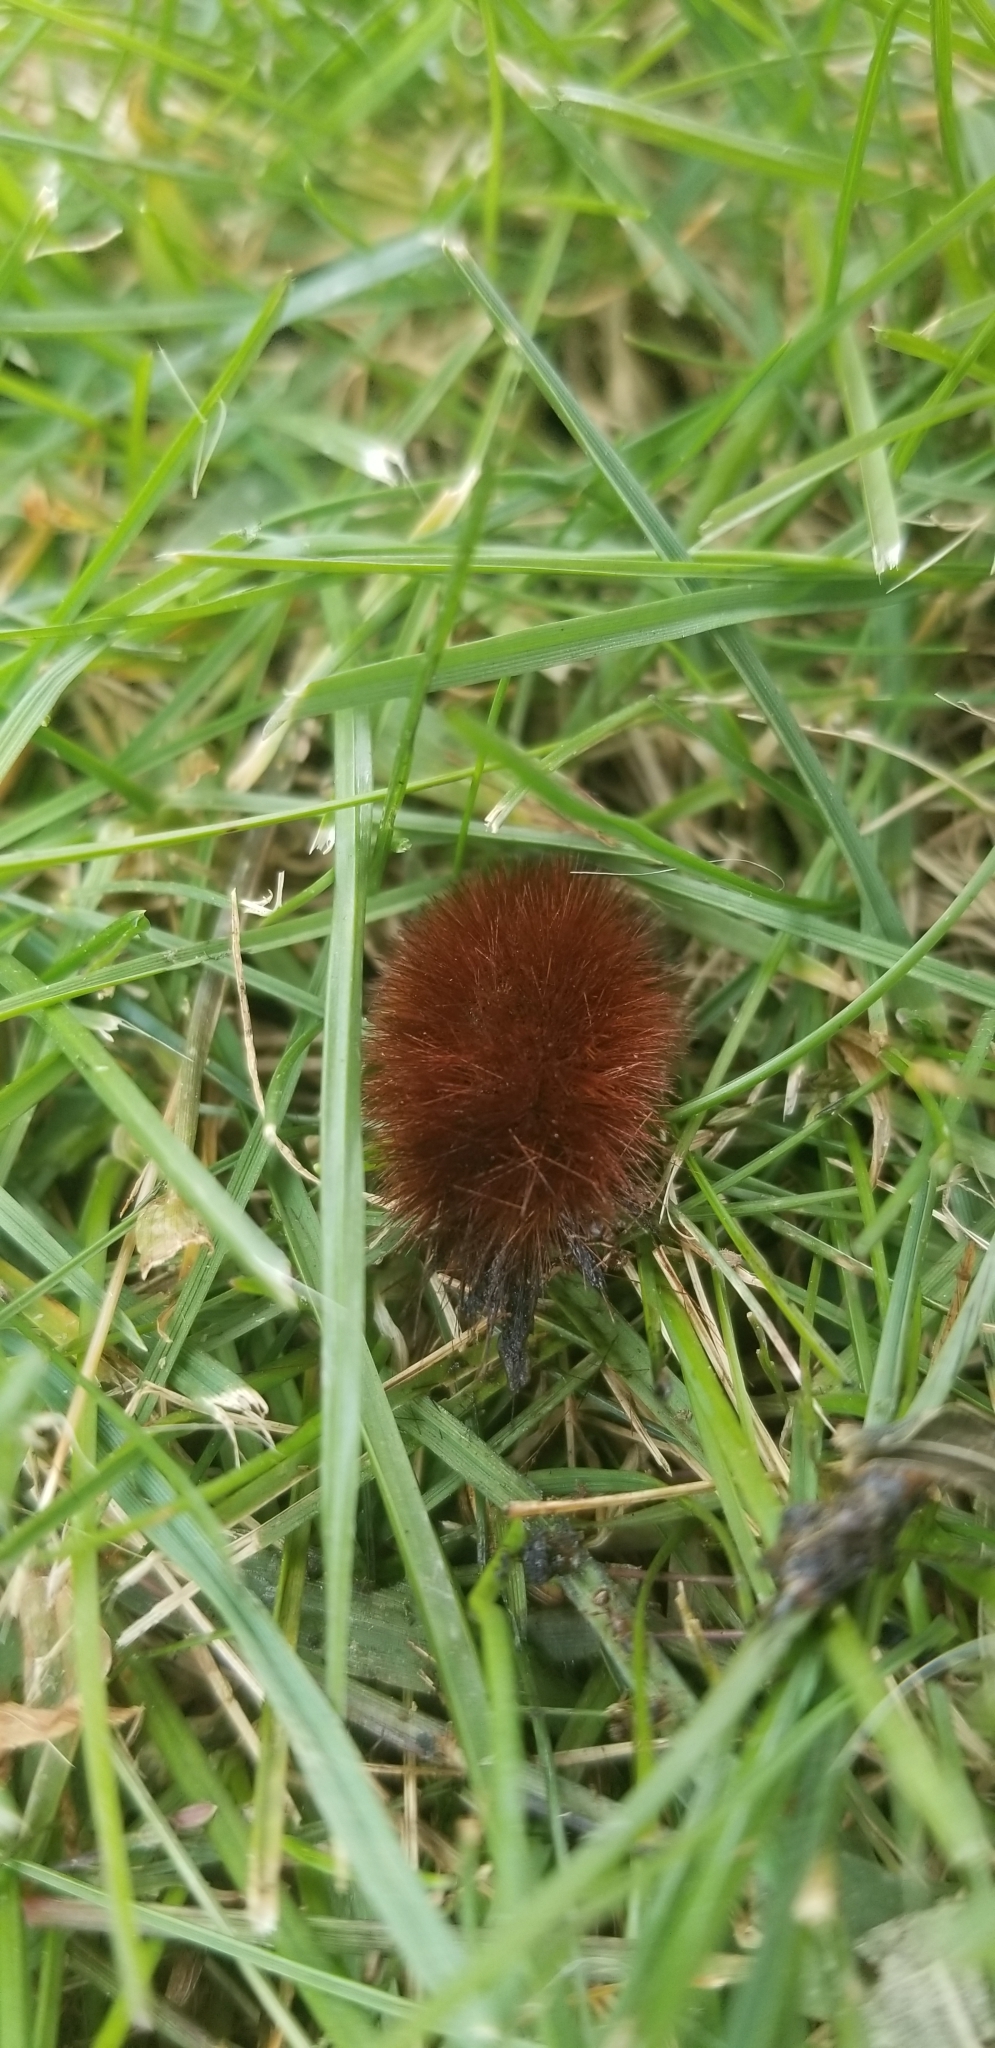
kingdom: Animalia
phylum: Arthropoda
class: Insecta
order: Lepidoptera
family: Erebidae
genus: Pyrrharctia
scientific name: Pyrrharctia isabella
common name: Isabella tiger moth
